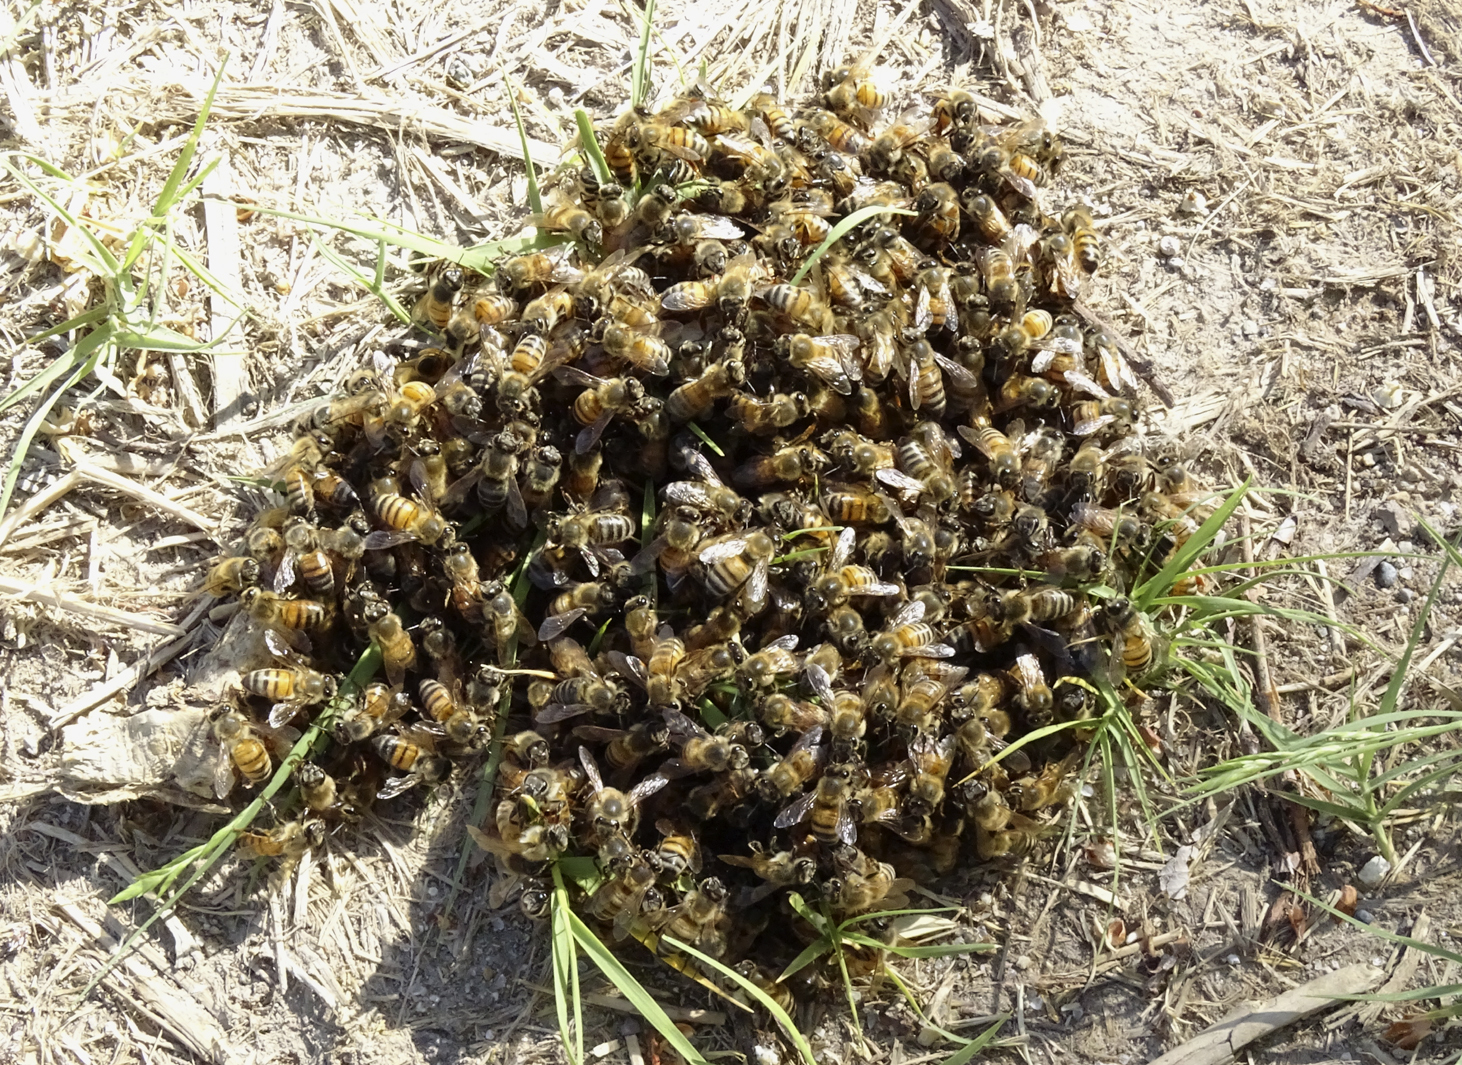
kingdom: Animalia
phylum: Arthropoda
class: Insecta
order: Hymenoptera
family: Apidae
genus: Apis
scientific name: Apis mellifera
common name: Honey bee
